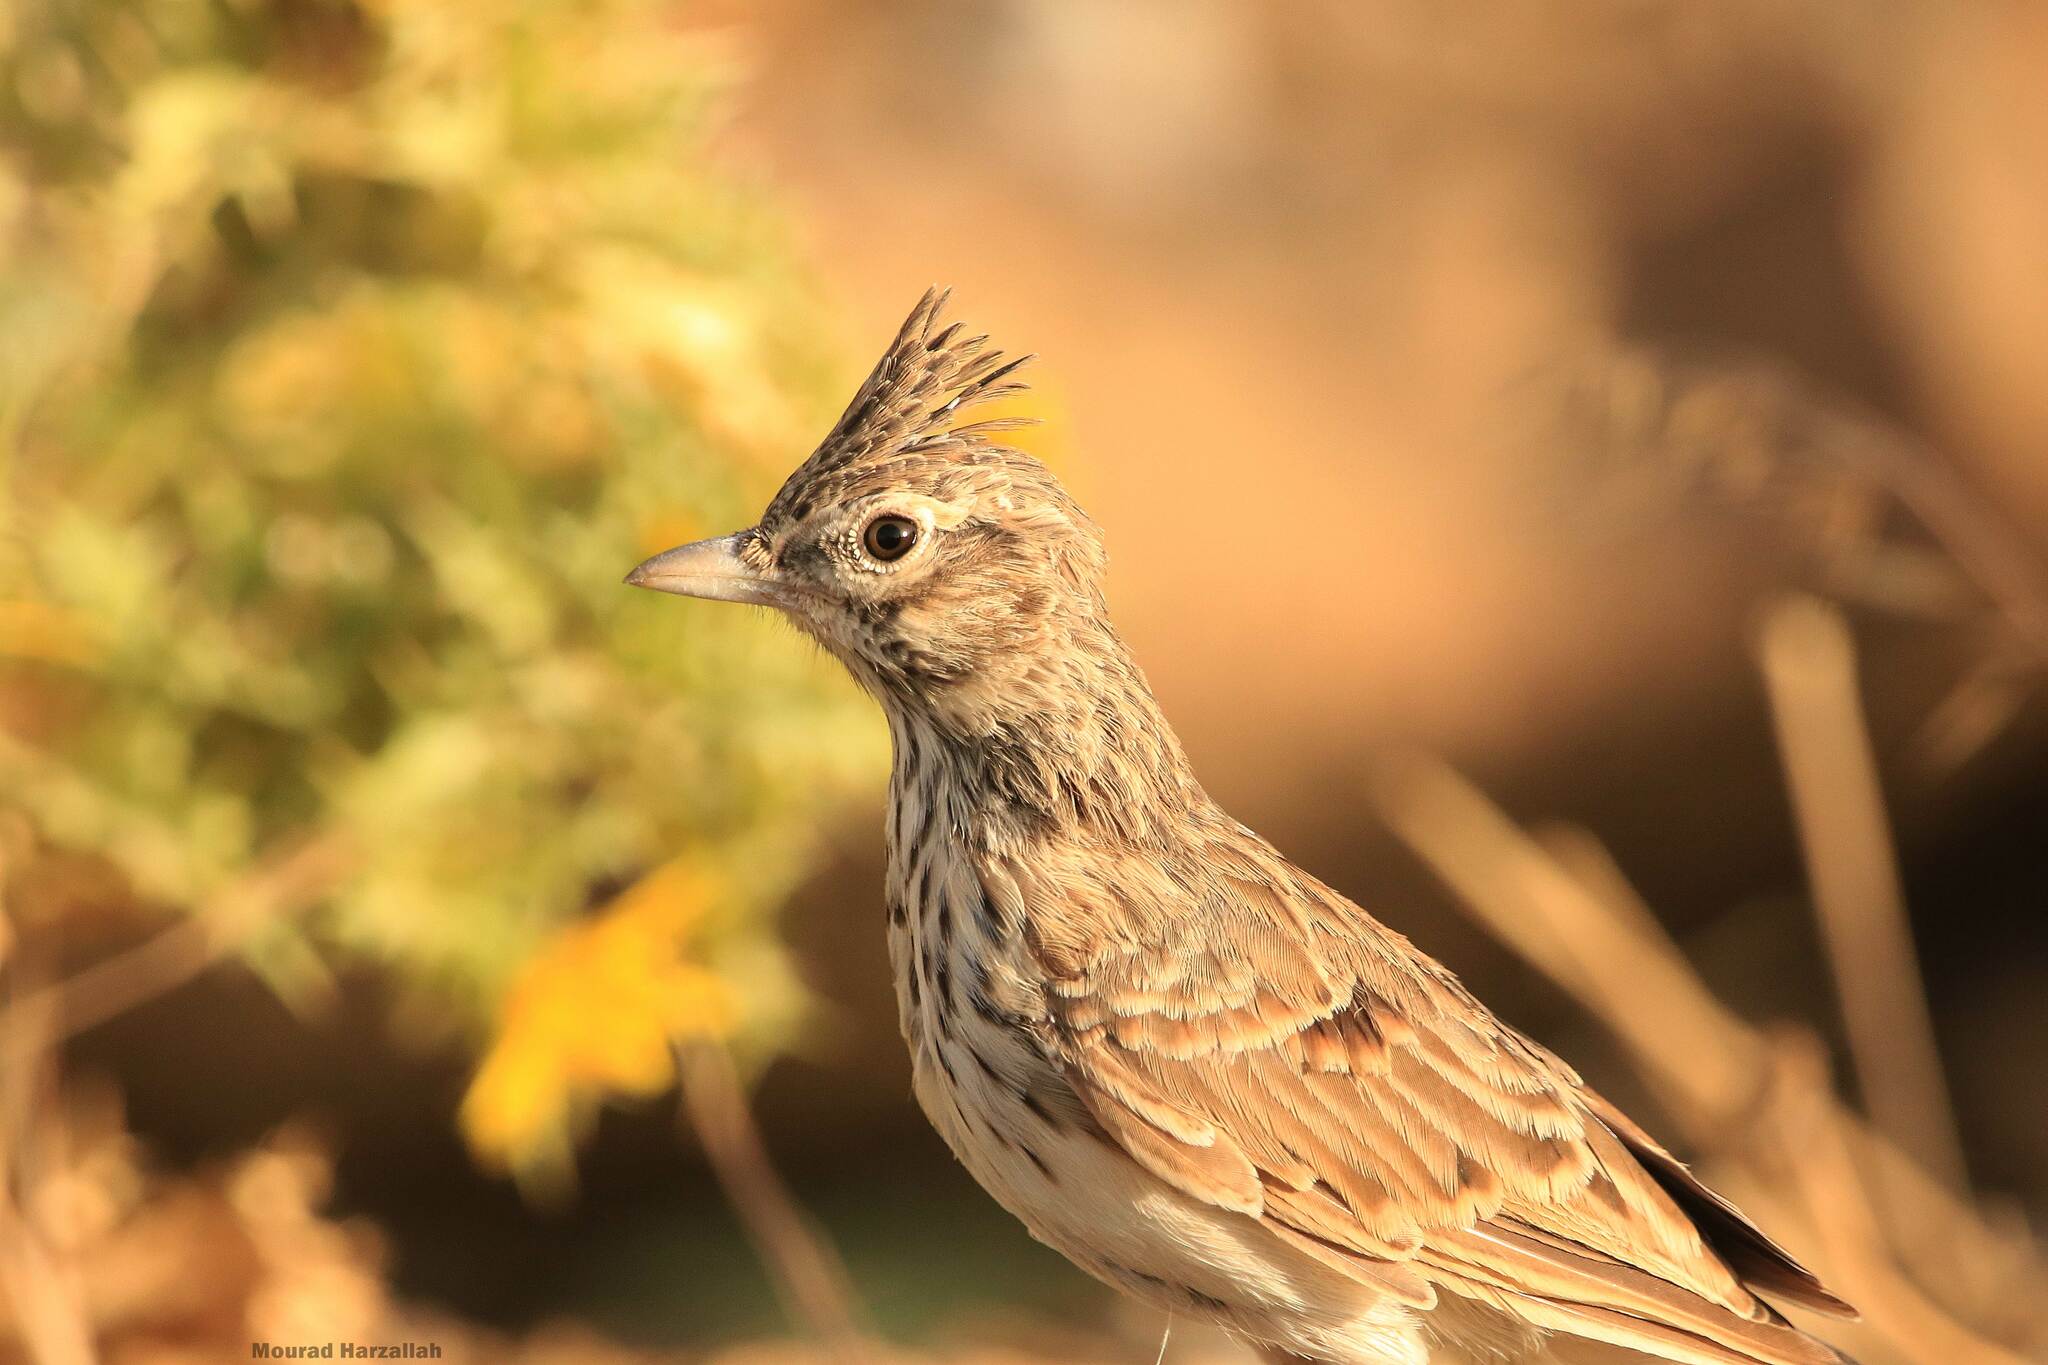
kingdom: Animalia
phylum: Chordata
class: Aves
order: Passeriformes
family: Alaudidae
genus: Galerida
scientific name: Galerida theklae
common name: Thekla lark
